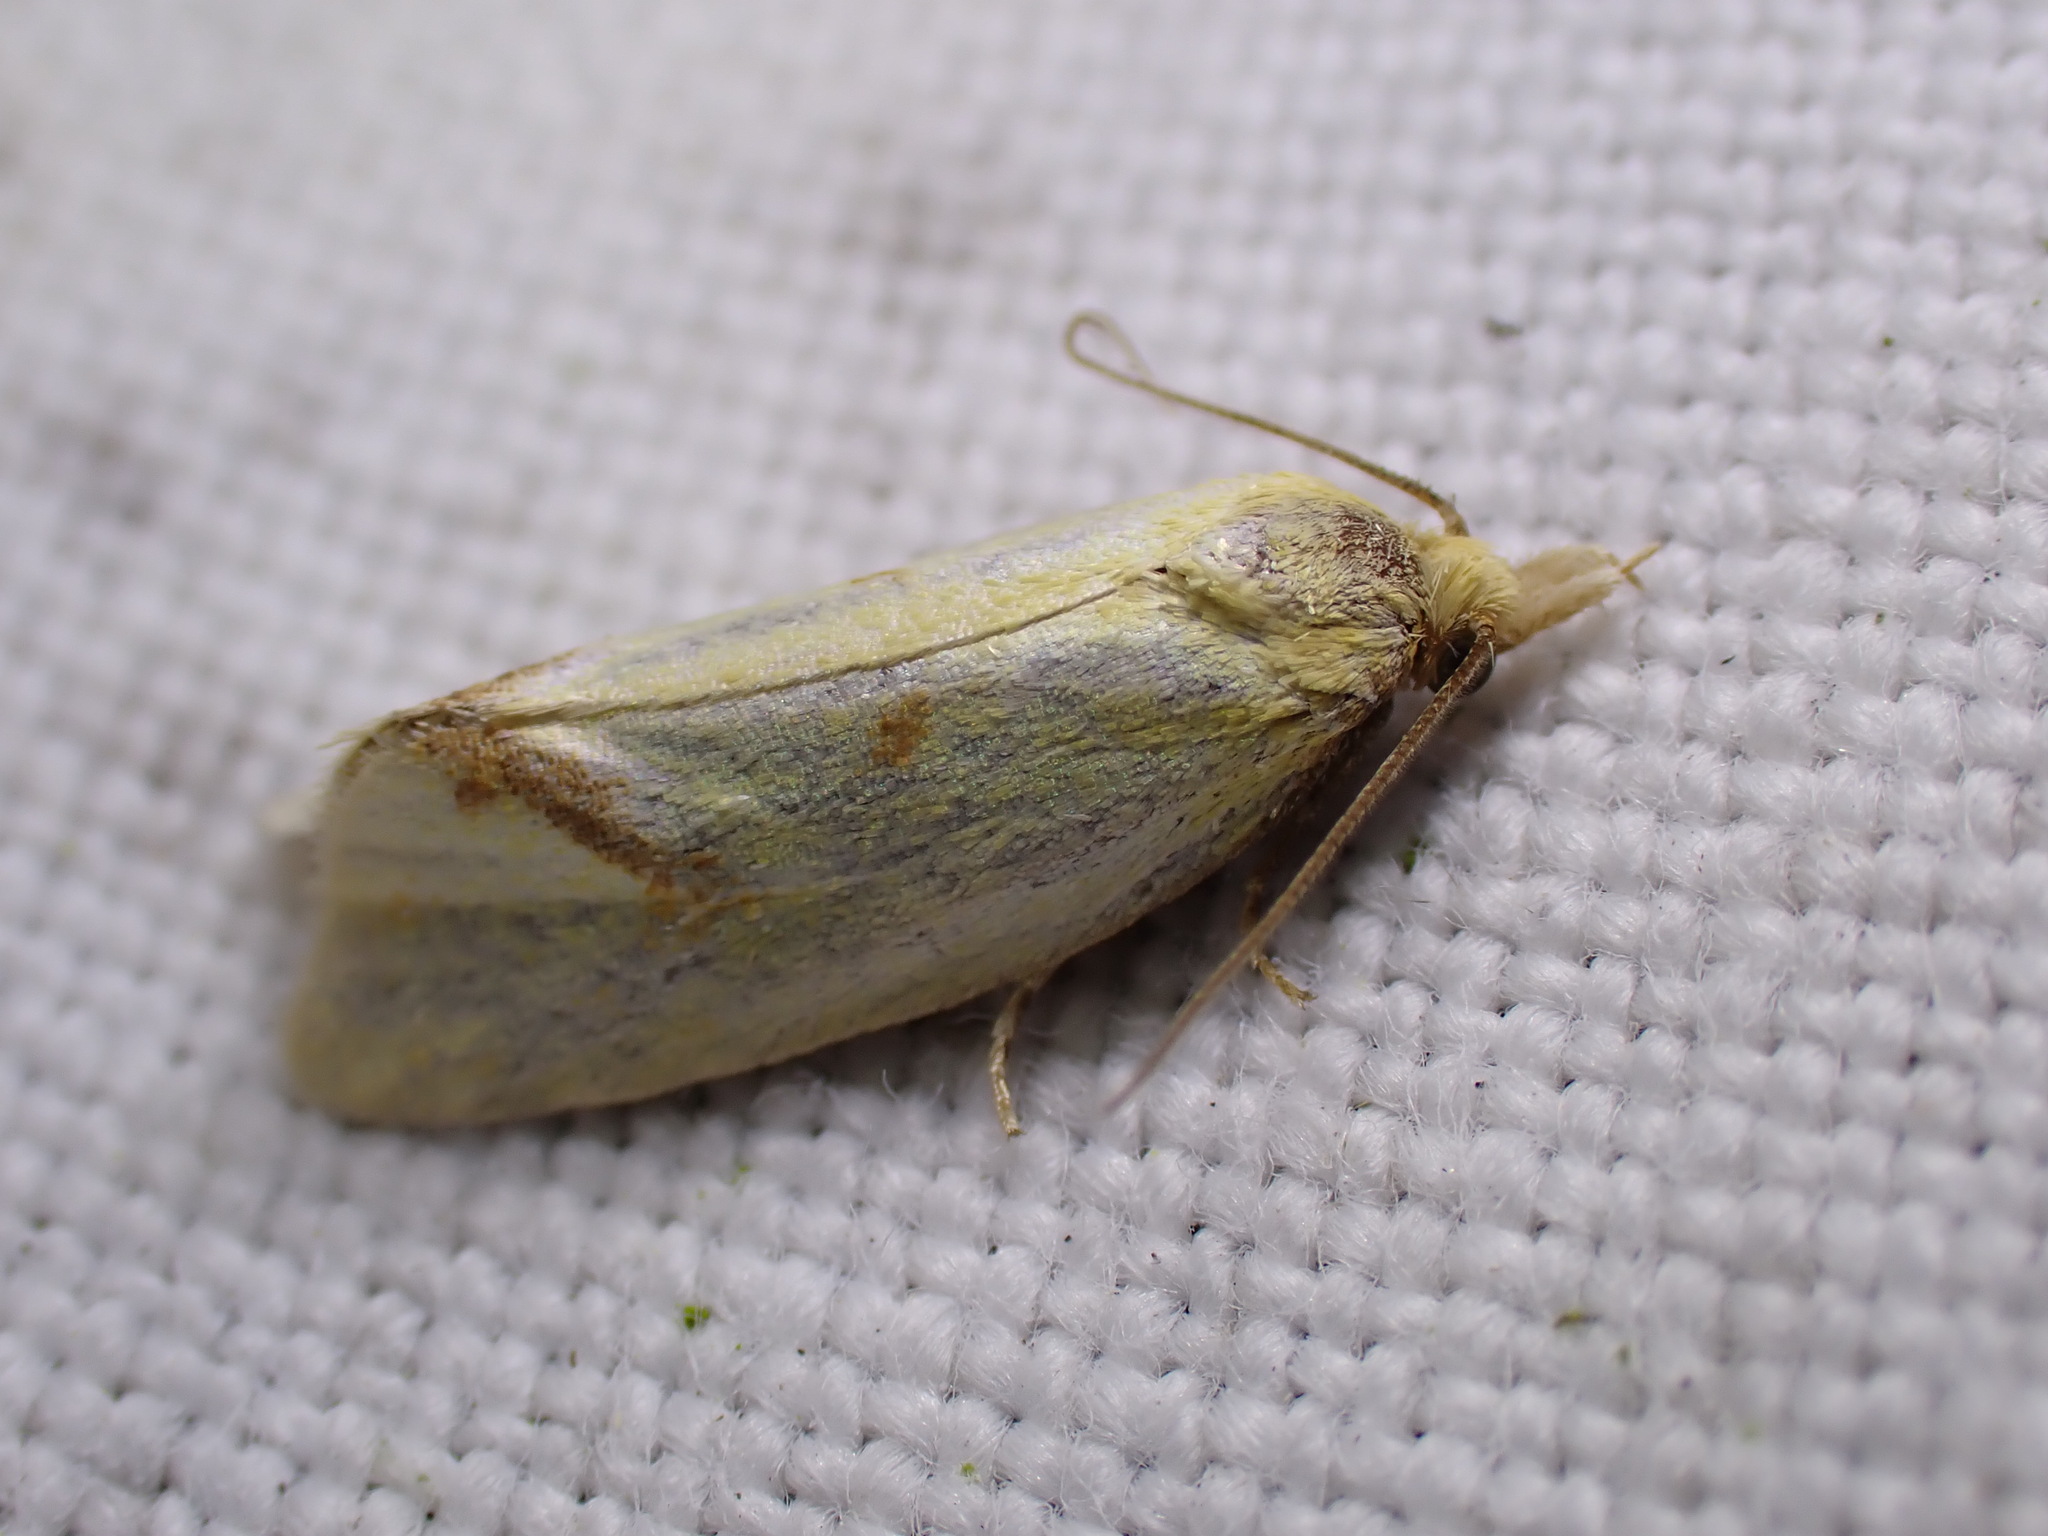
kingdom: Animalia
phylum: Arthropoda
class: Insecta
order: Lepidoptera
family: Tortricidae
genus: Agapeta
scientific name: Agapeta hamana
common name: Common yellow conch
